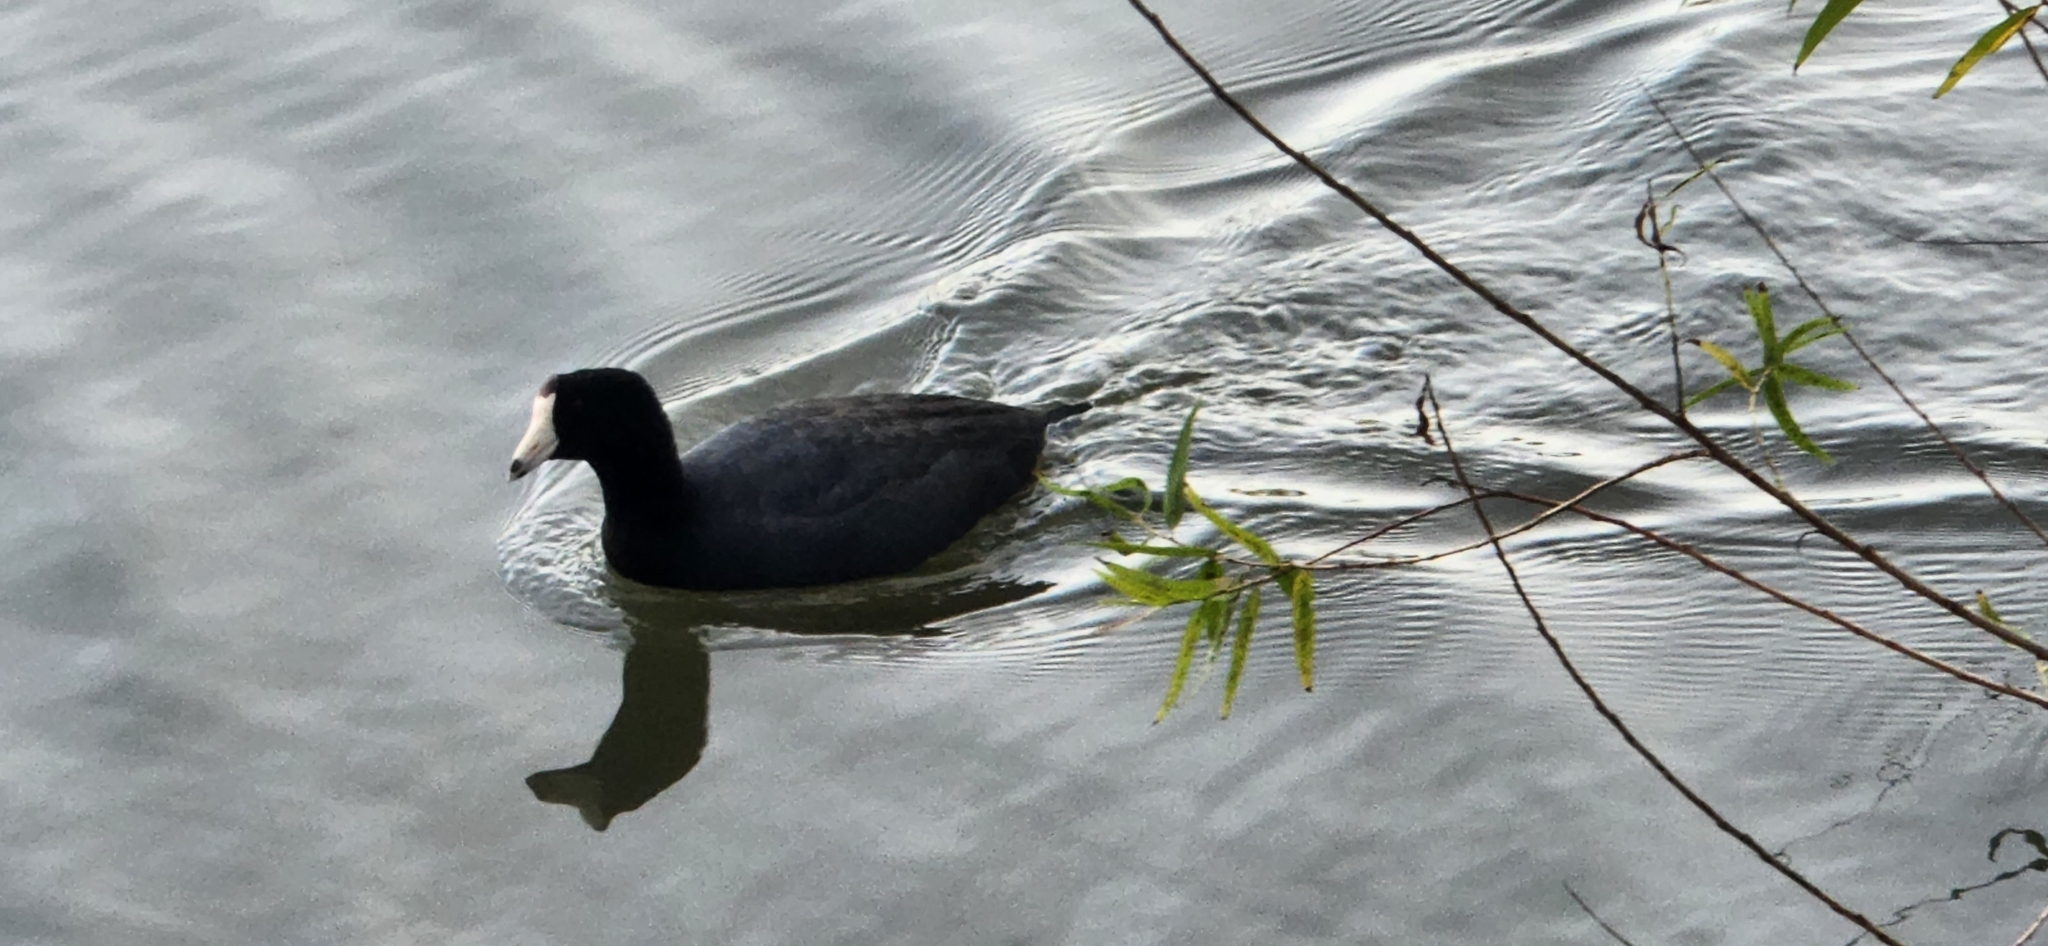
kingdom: Animalia
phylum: Chordata
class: Aves
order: Gruiformes
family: Rallidae
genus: Fulica
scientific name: Fulica americana
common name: American coot
